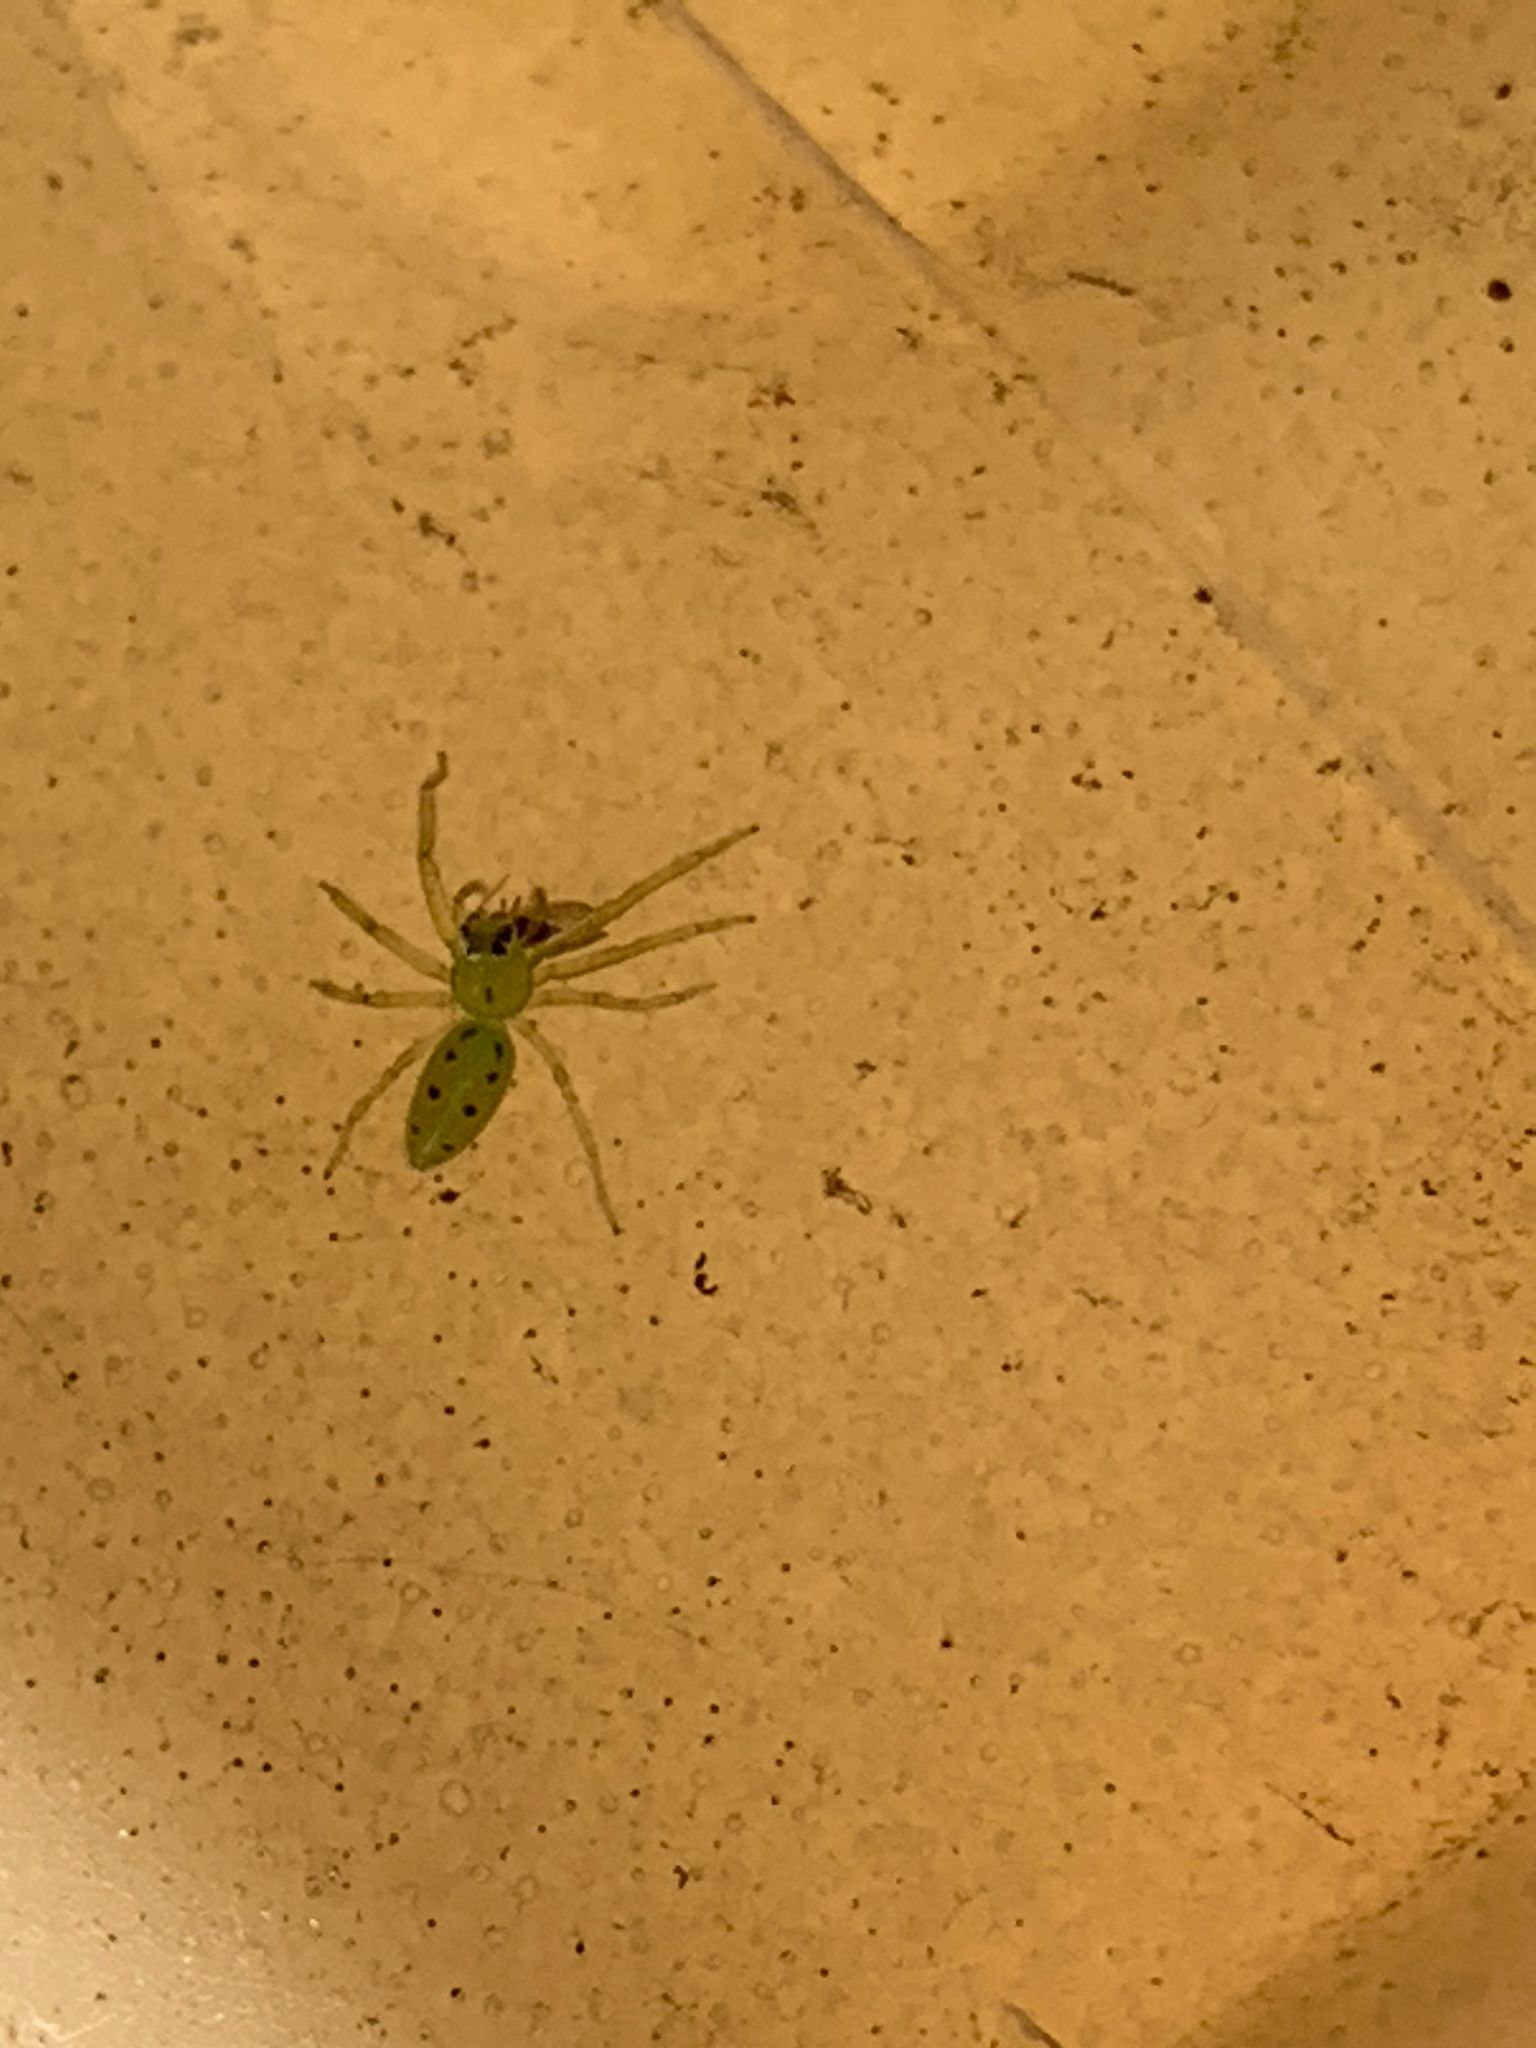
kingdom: Animalia
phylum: Arthropoda
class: Arachnida
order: Araneae
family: Salticidae
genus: Lyssomanes
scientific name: Lyssomanes viridis
